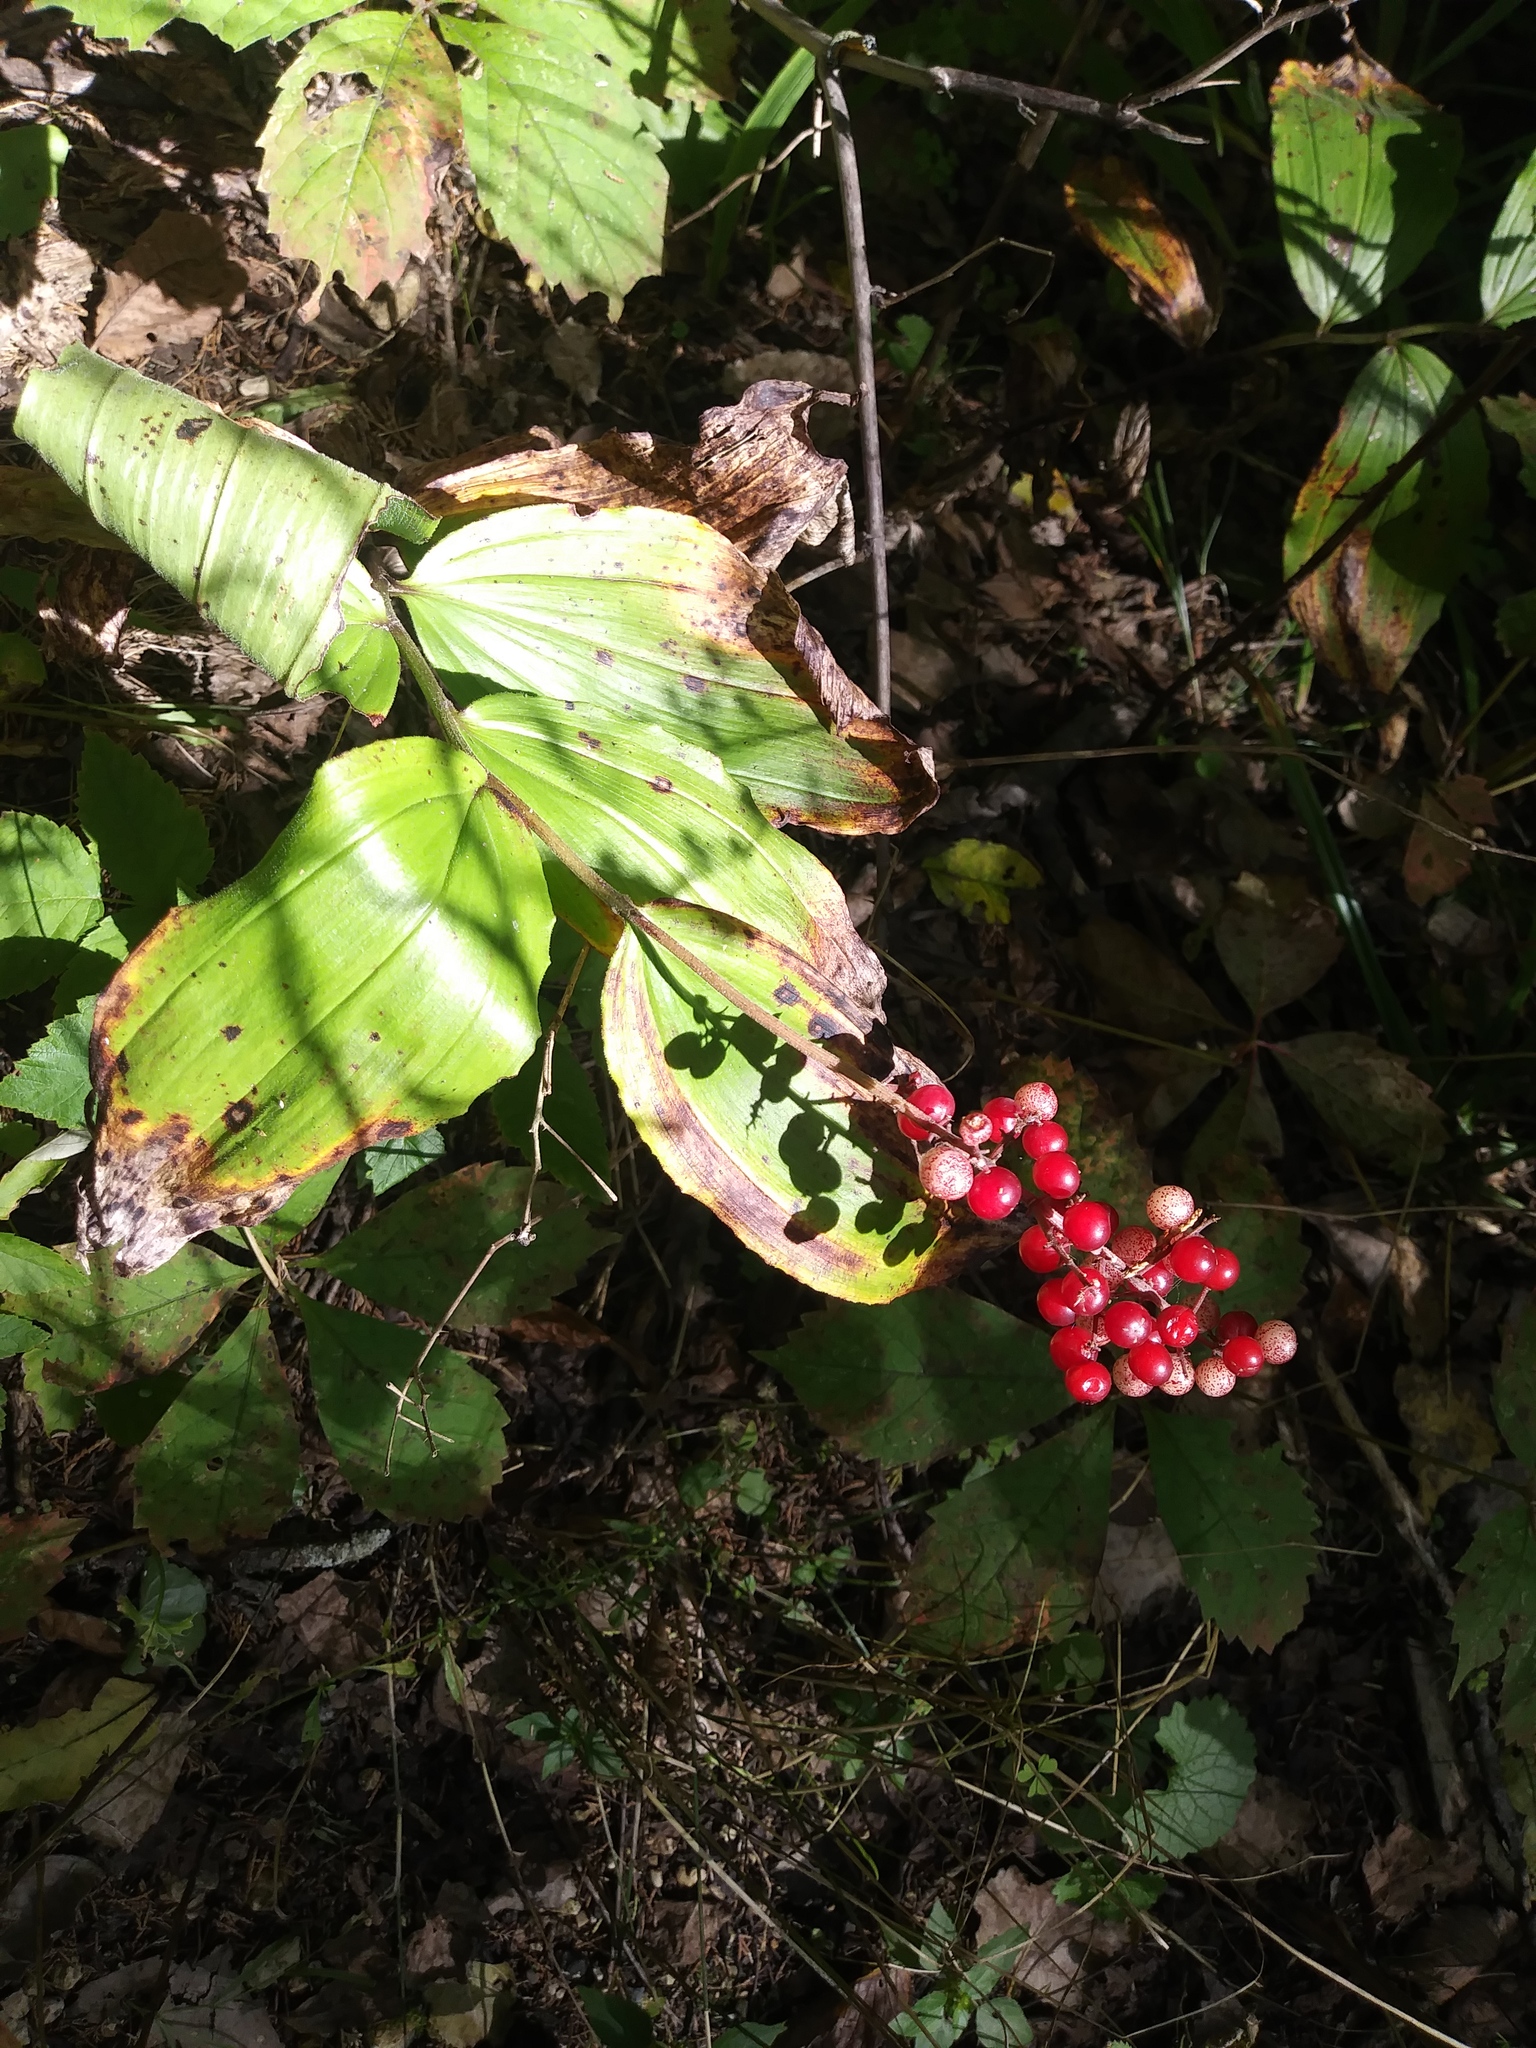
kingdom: Plantae
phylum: Tracheophyta
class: Liliopsida
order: Asparagales
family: Asparagaceae
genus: Maianthemum
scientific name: Maianthemum racemosum
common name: False spikenard
